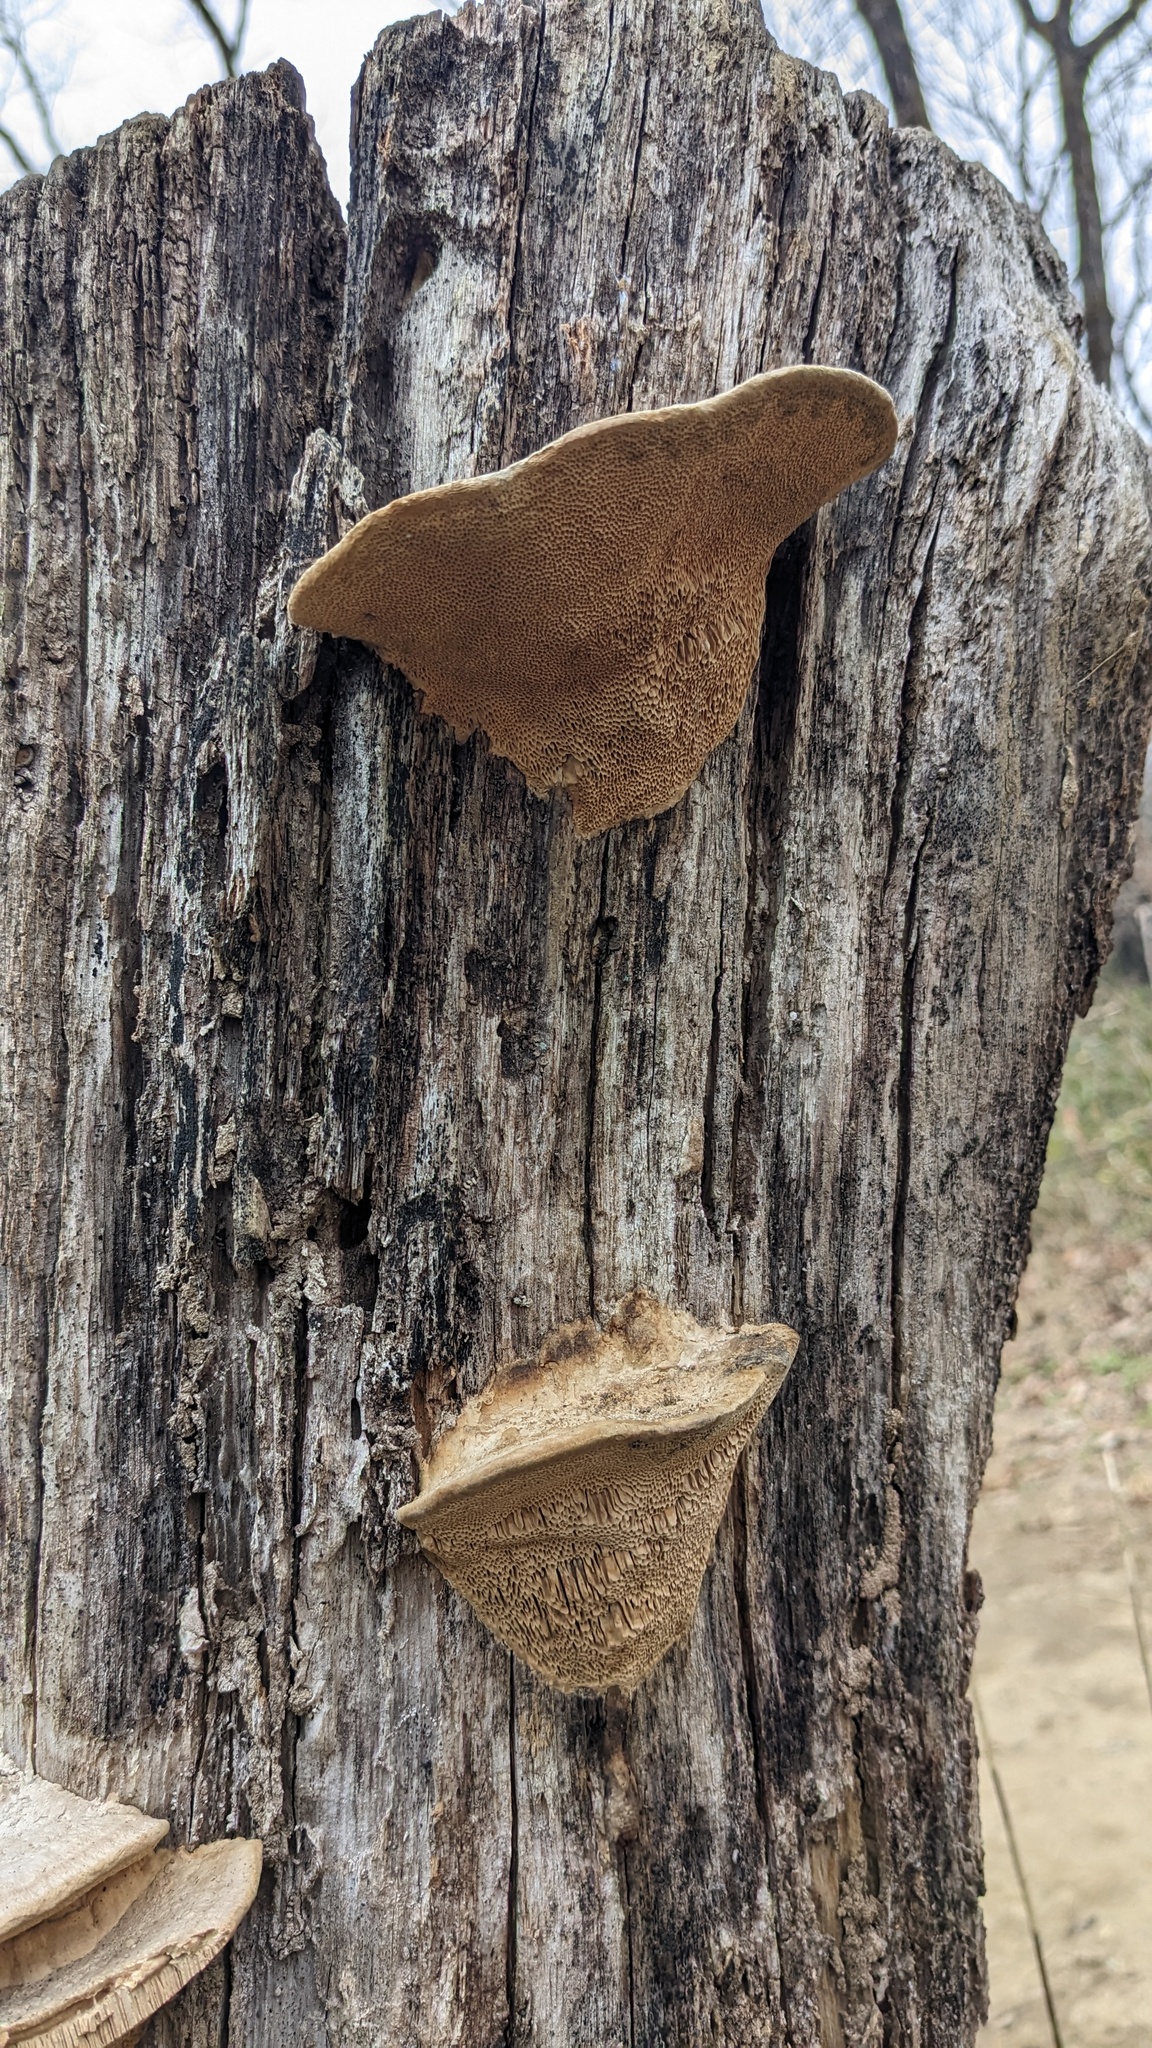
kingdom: Fungi
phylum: Basidiomycota
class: Agaricomycetes
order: Polyporales
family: Fomitopsidaceae
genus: Fomitopsis
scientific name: Fomitopsis
